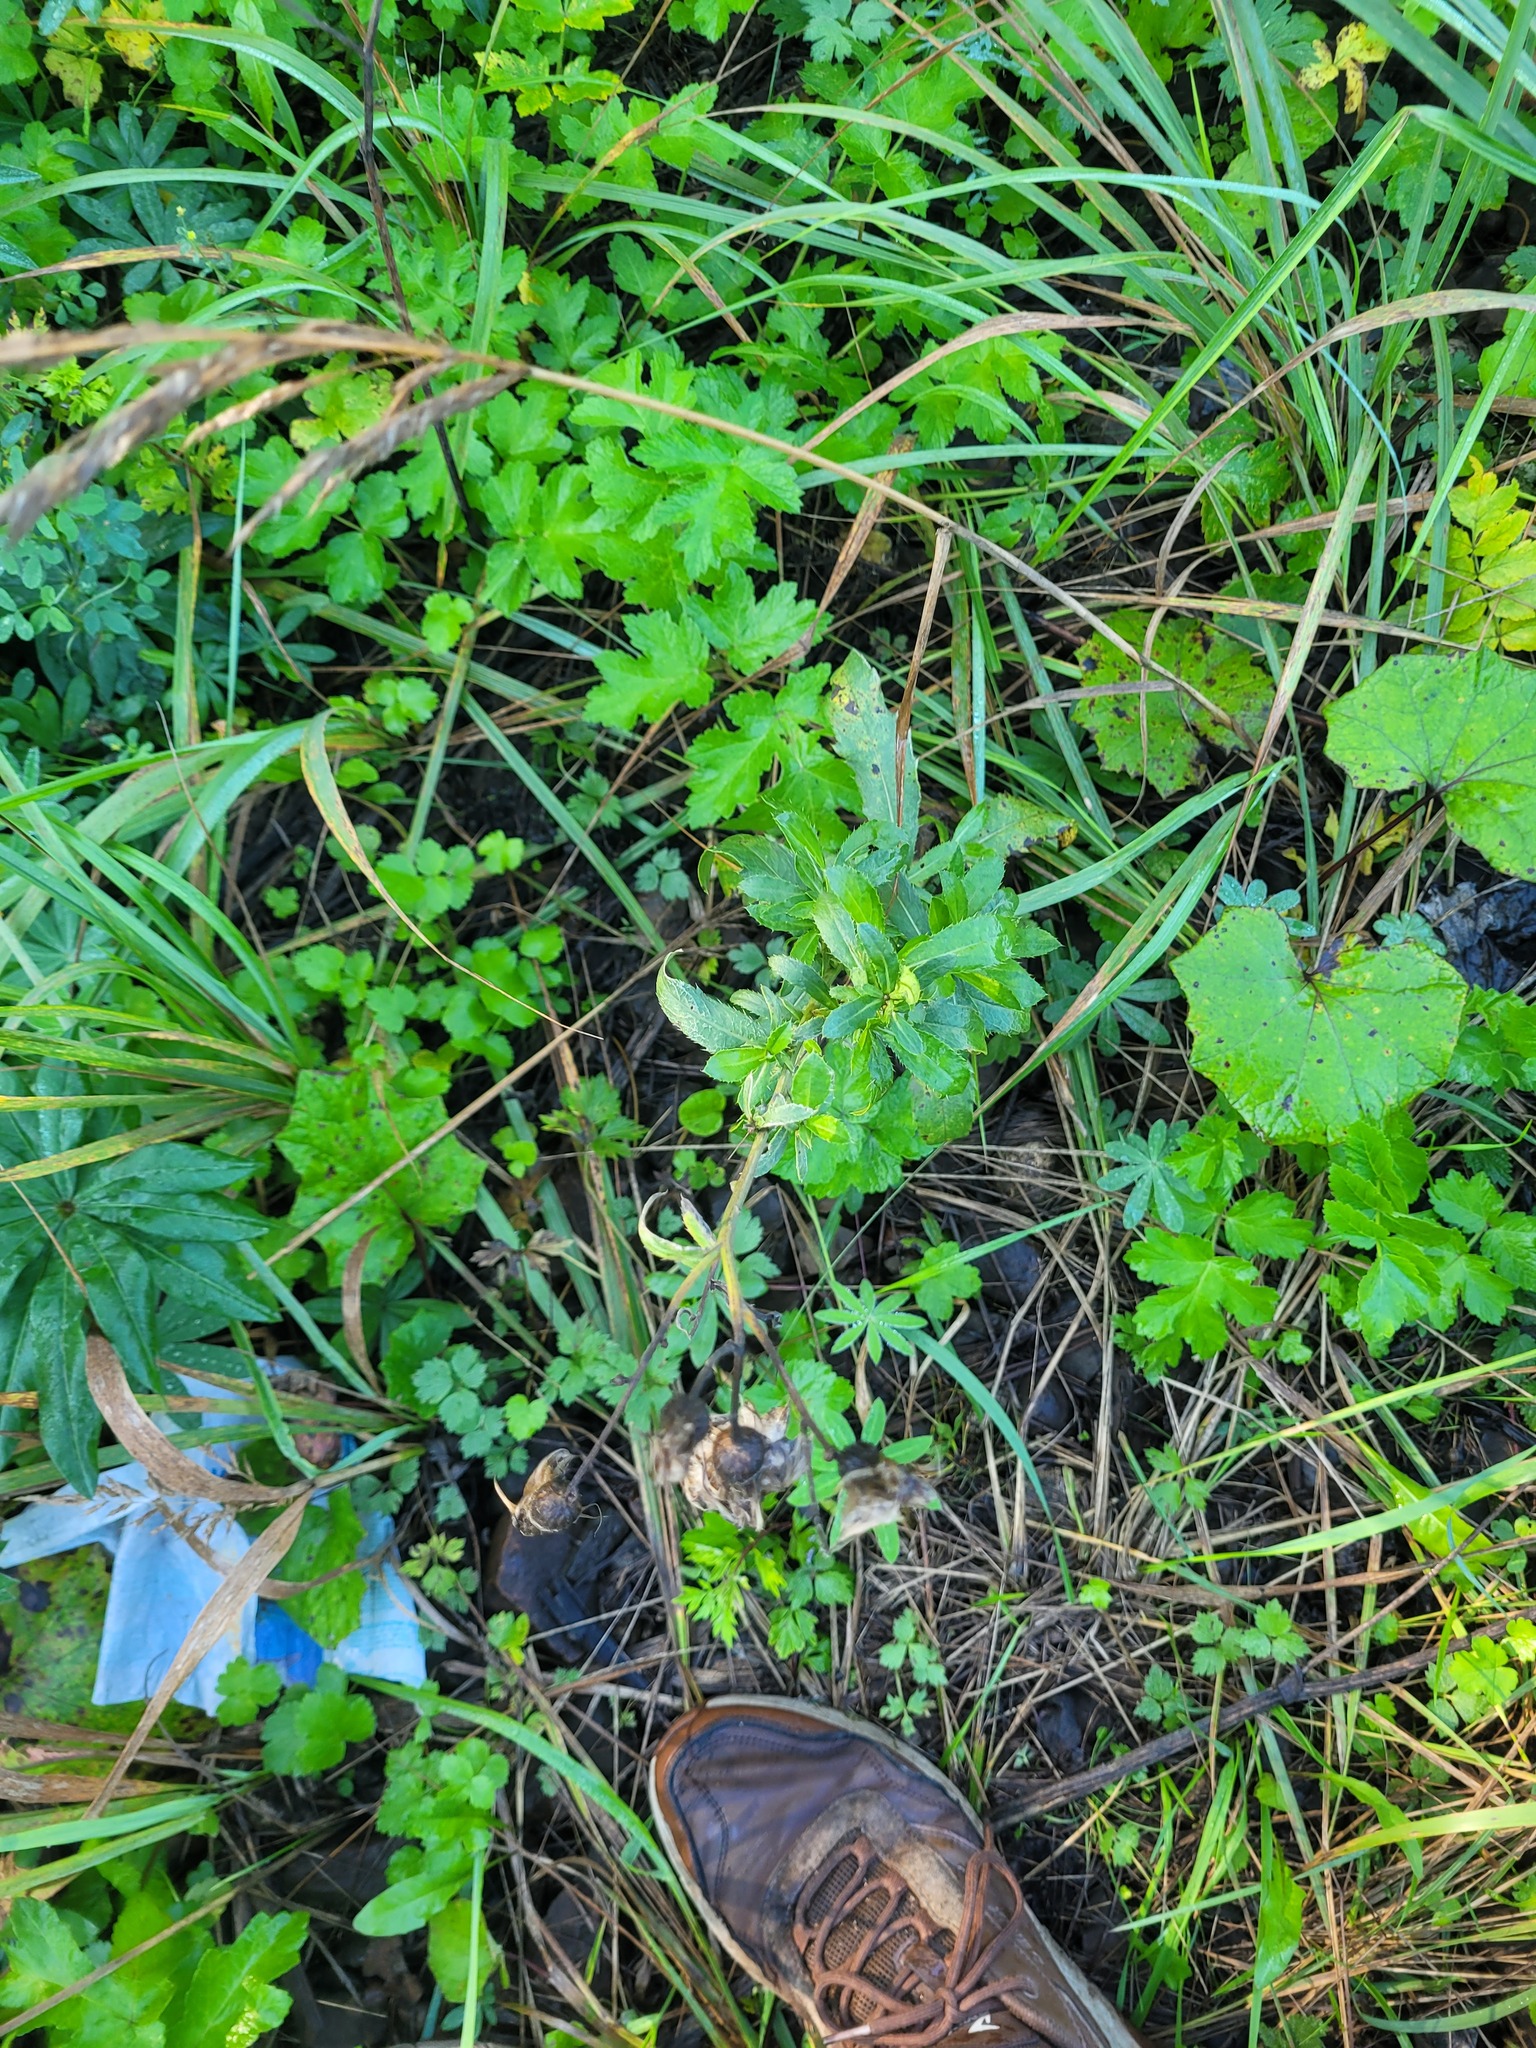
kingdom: Plantae
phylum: Tracheophyta
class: Magnoliopsida
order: Asterales
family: Asteraceae
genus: Cirsium
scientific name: Cirsium arvense
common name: Creeping thistle
